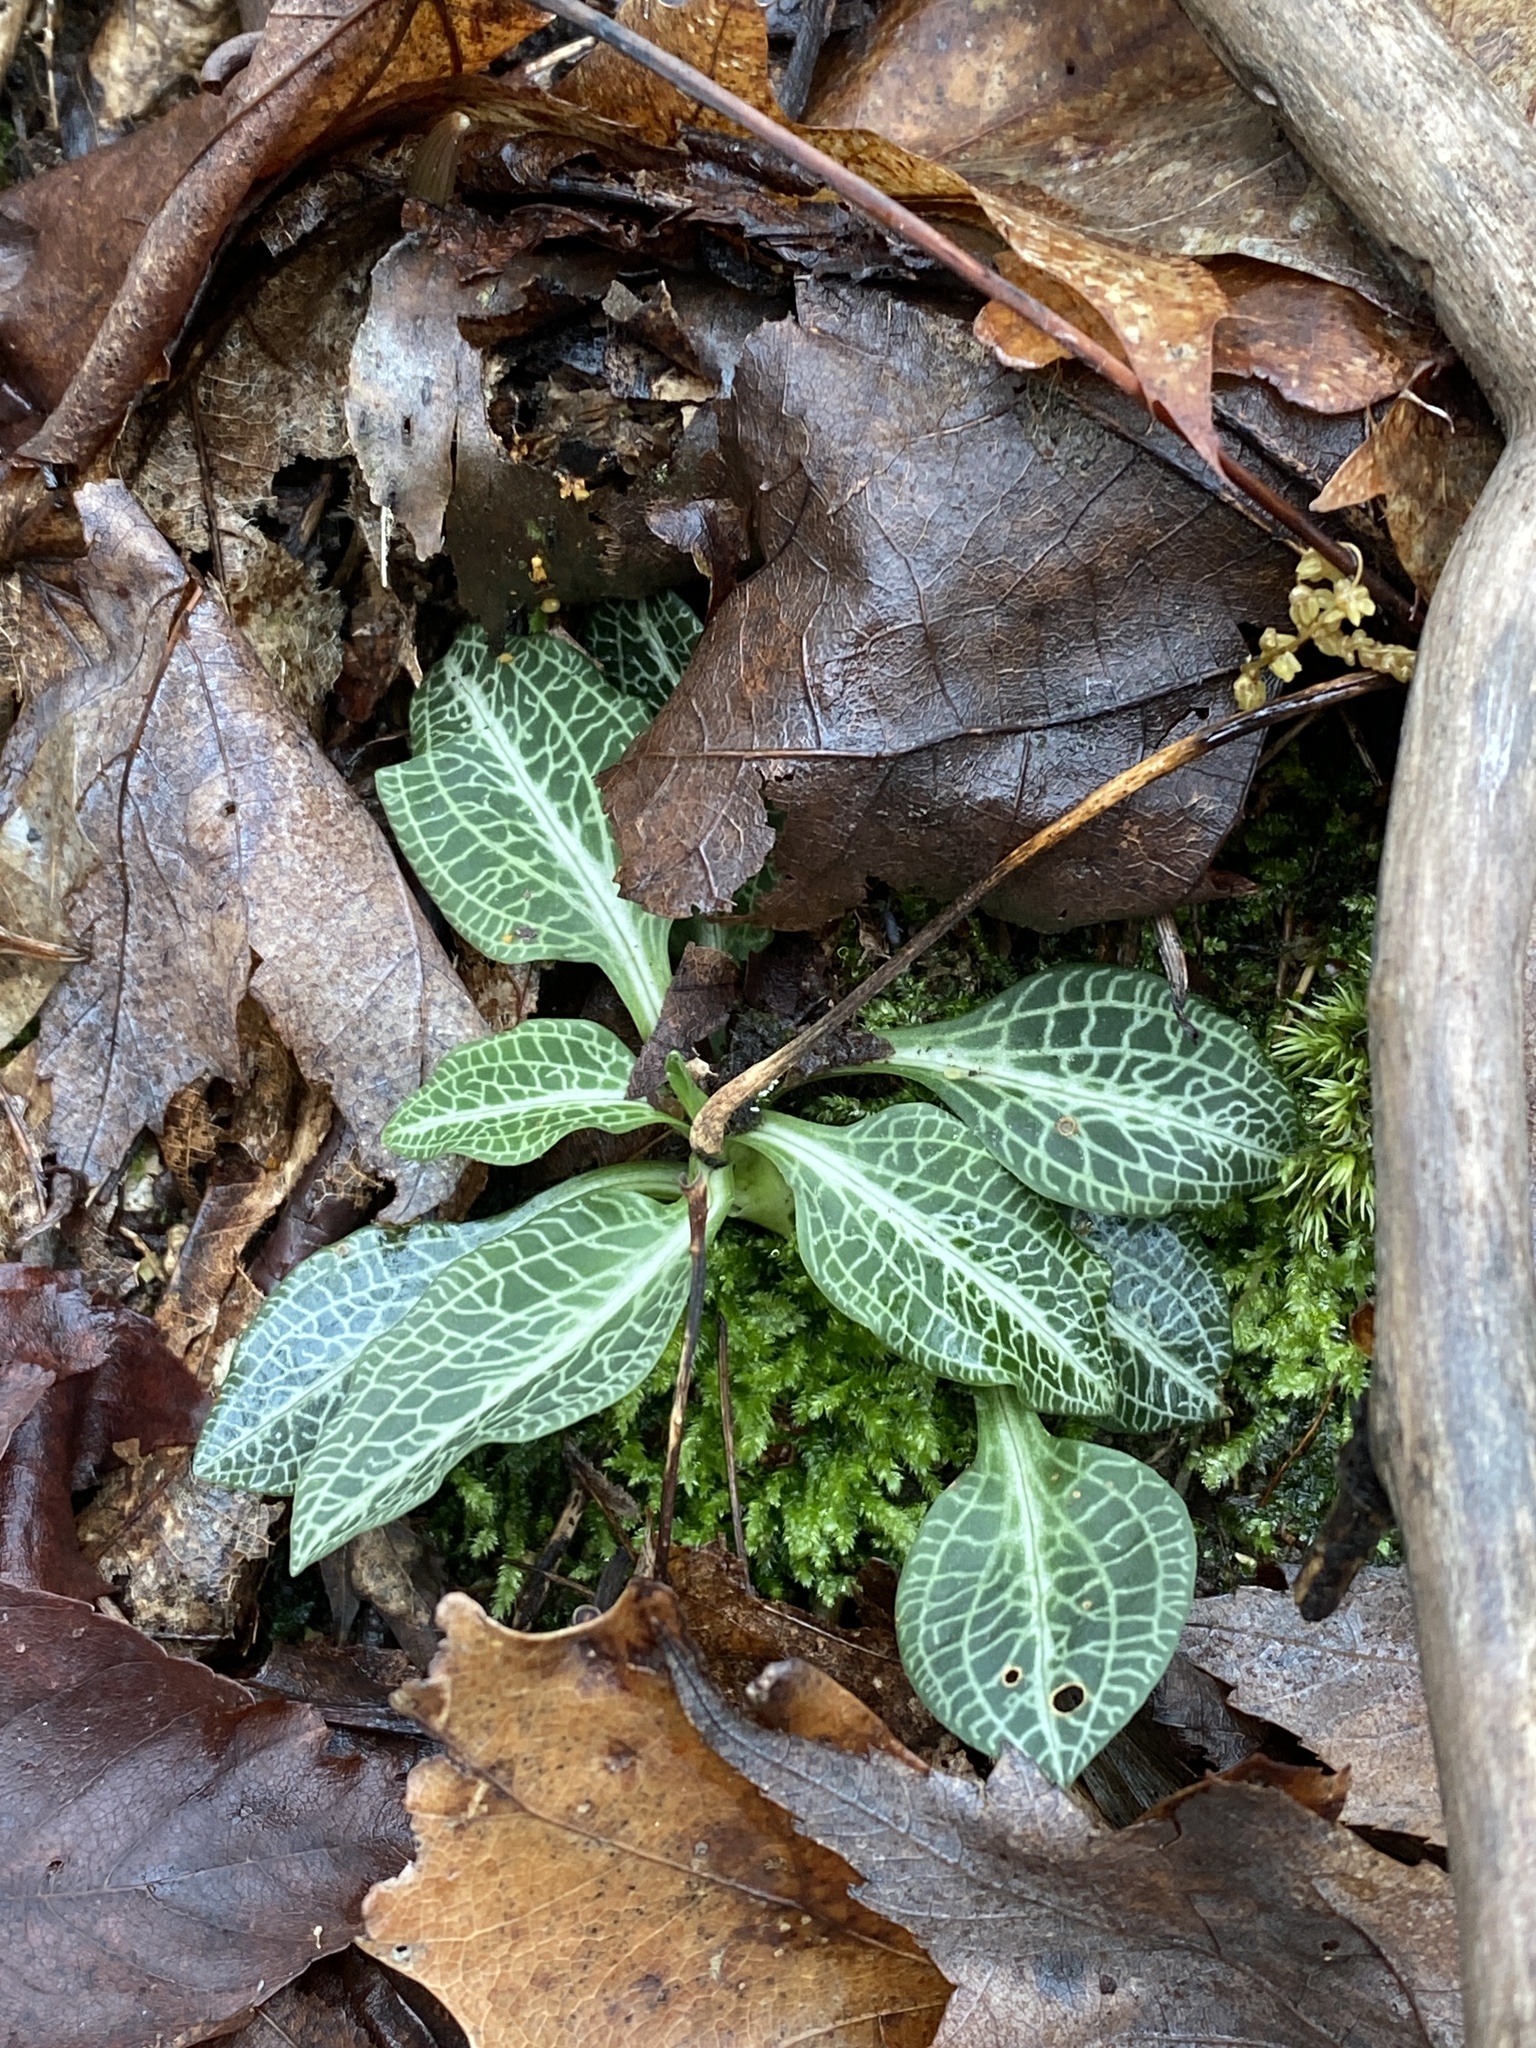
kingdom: Plantae
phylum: Tracheophyta
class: Liliopsida
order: Asparagales
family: Orchidaceae
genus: Goodyera
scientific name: Goodyera pubescens
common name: Downy rattlesnake-plantain
